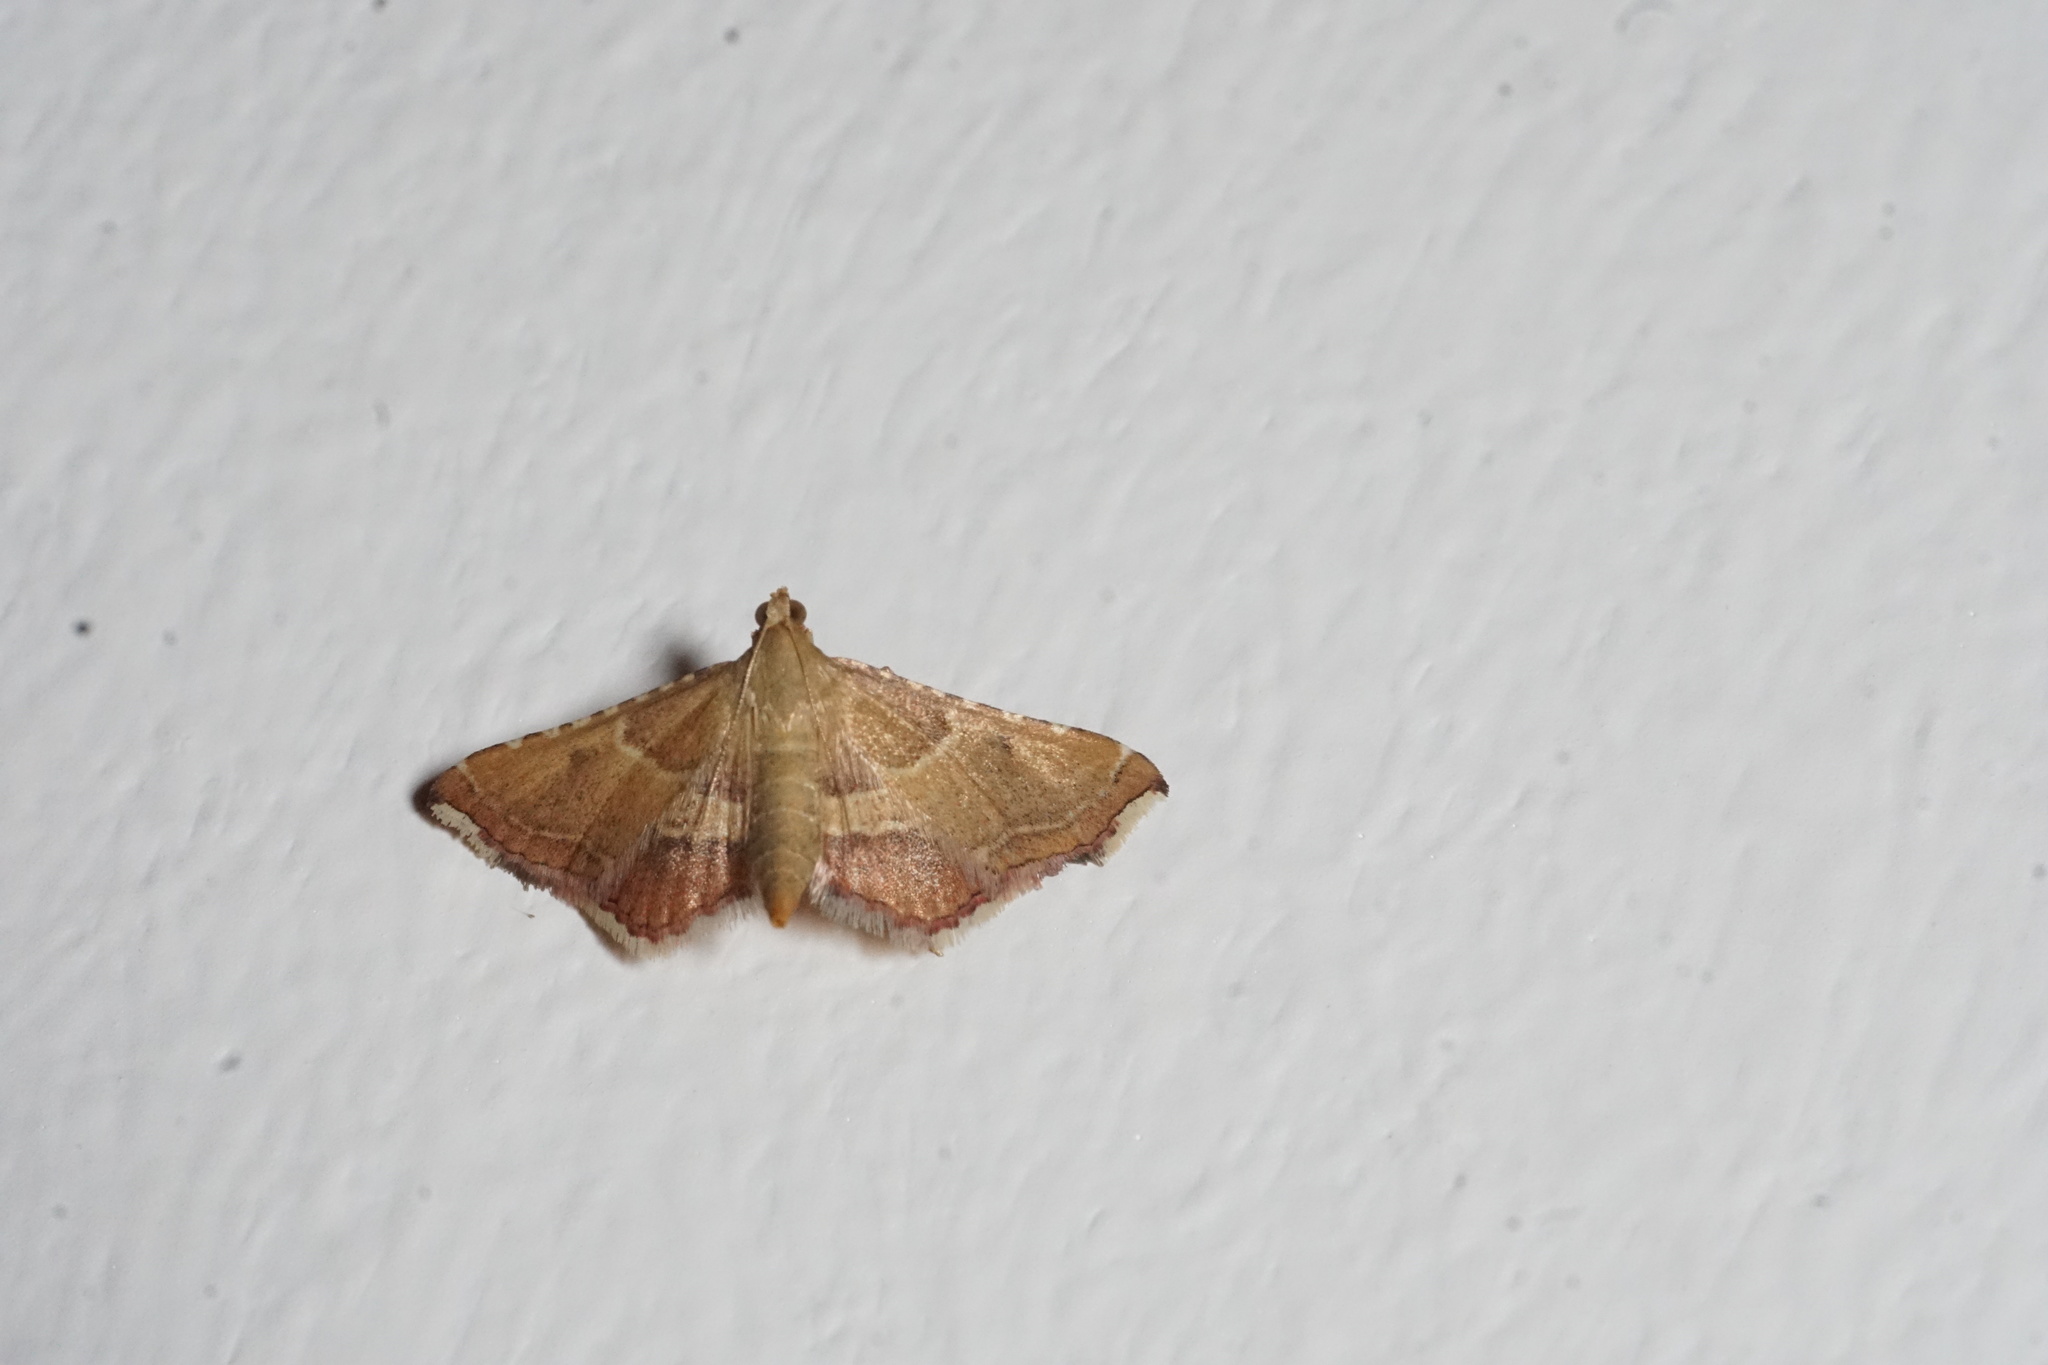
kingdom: Animalia
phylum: Arthropoda
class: Insecta
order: Lepidoptera
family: Pyralidae
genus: Endotricha
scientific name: Endotricha flammealis
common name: Rosy tabby
